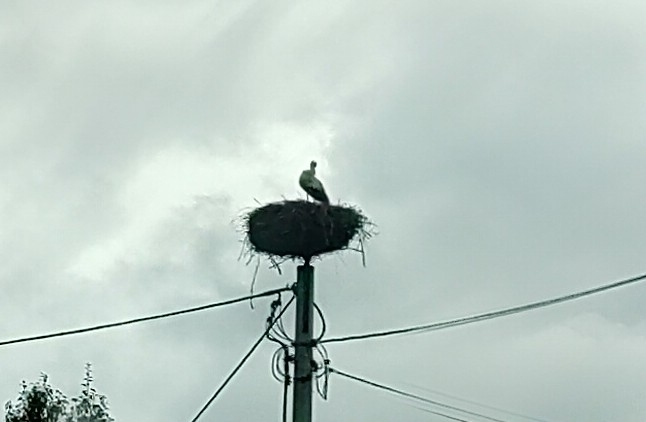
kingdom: Animalia
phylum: Chordata
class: Aves
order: Ciconiiformes
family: Ciconiidae
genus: Ciconia
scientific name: Ciconia ciconia
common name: White stork
